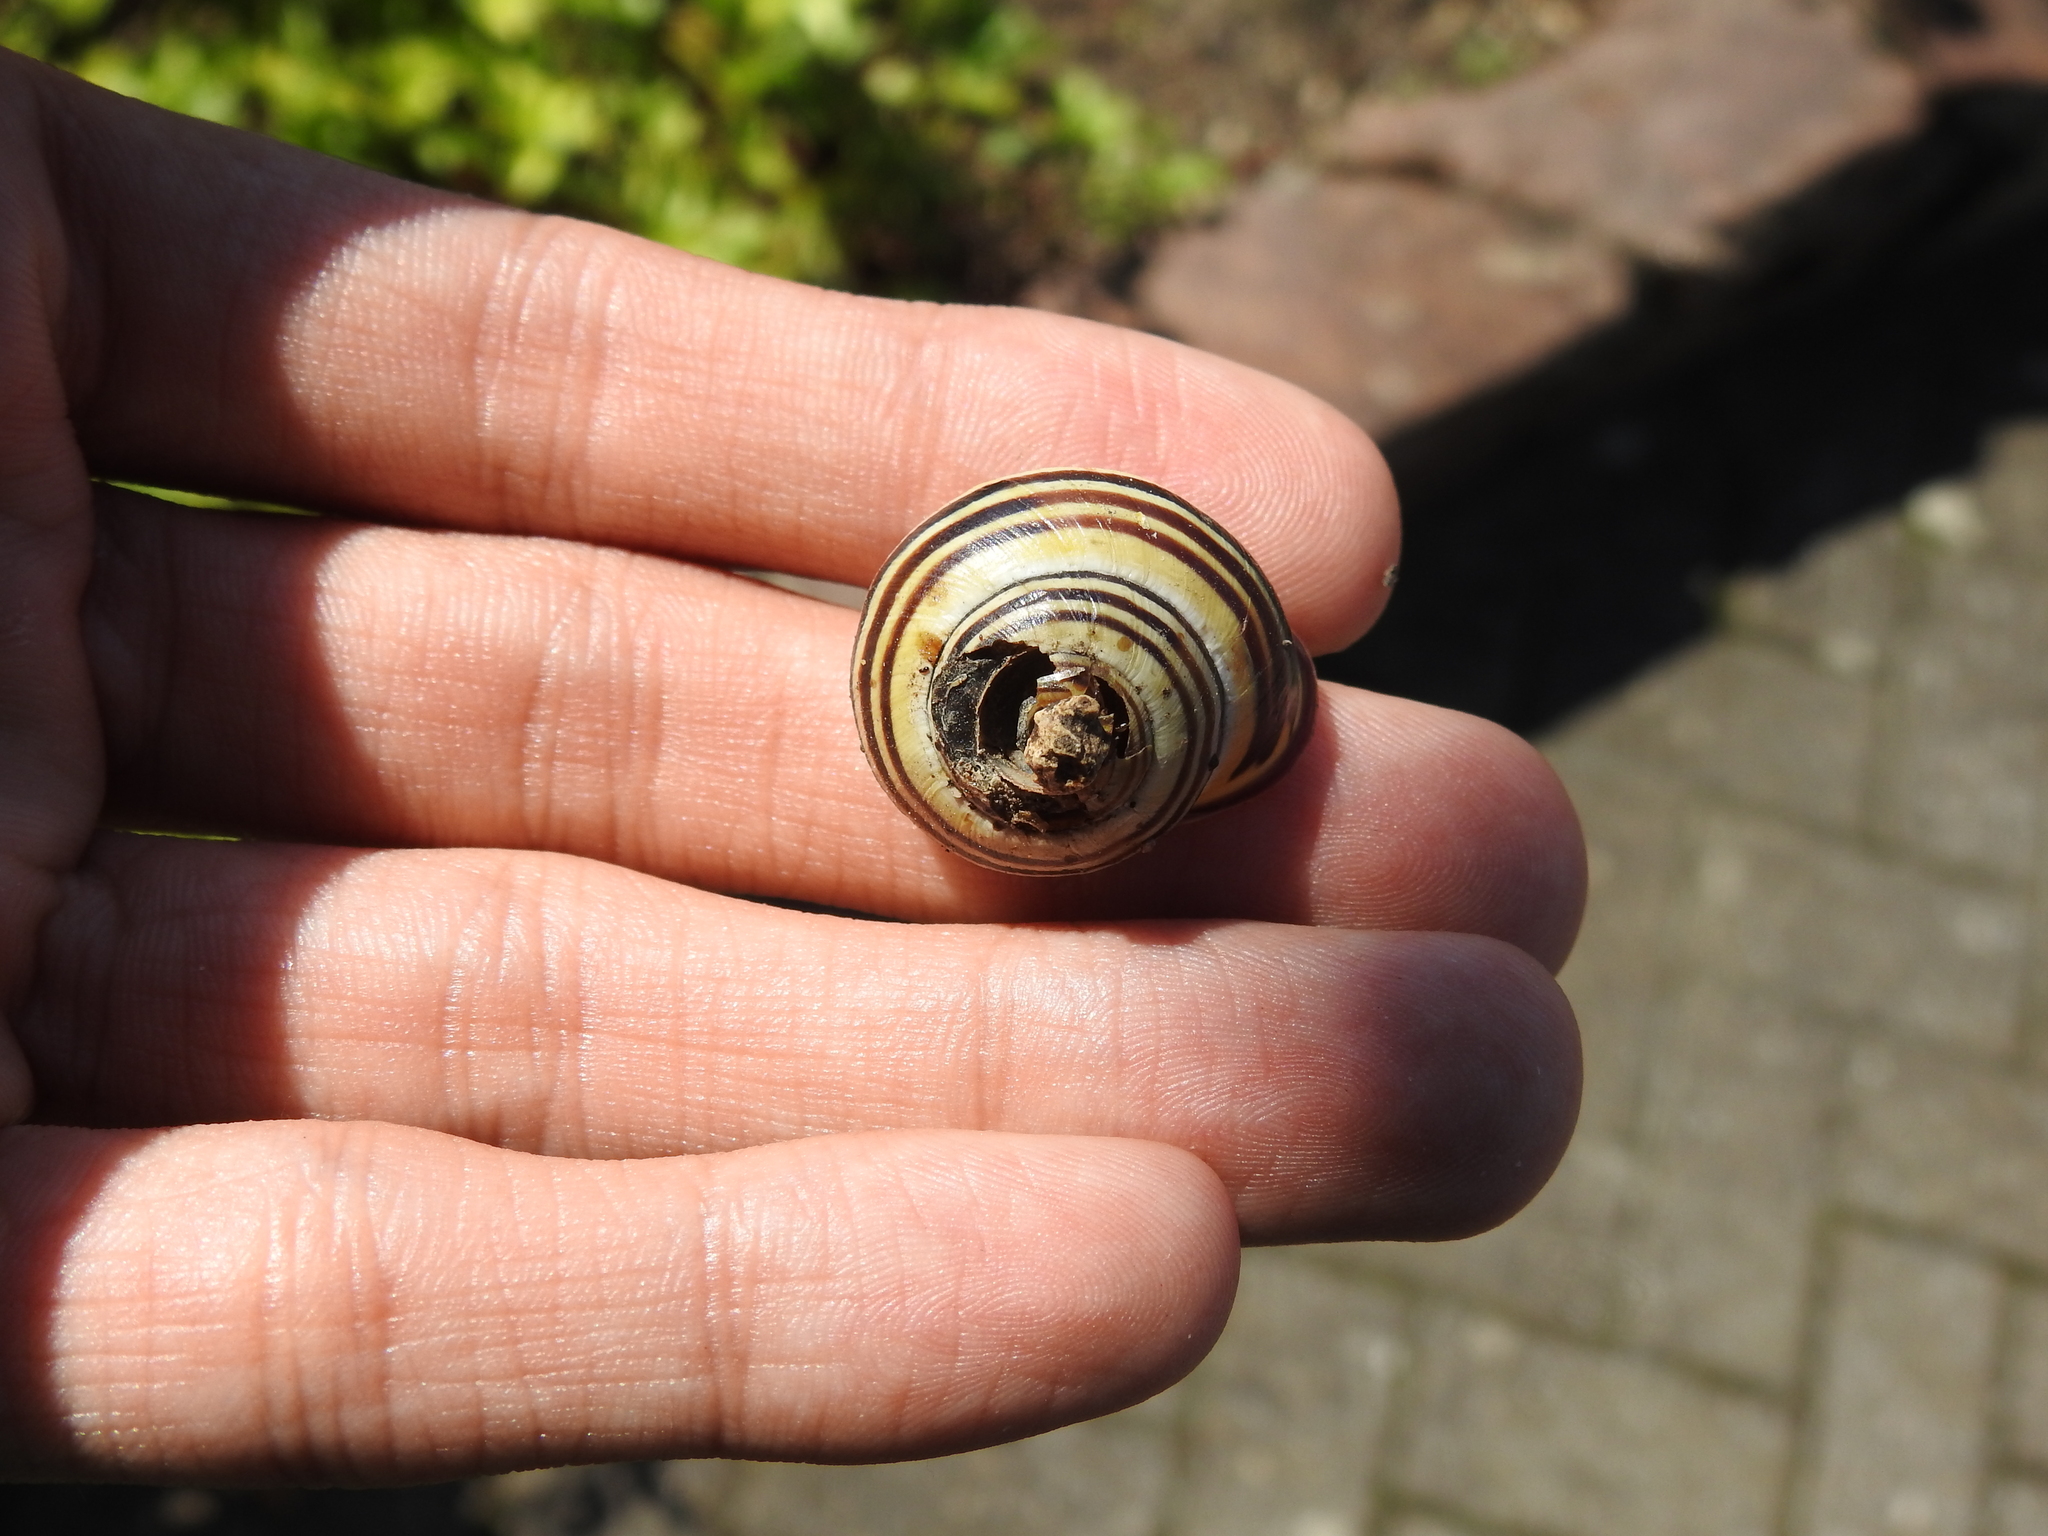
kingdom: Animalia
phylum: Mollusca
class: Gastropoda
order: Stylommatophora
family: Helicidae
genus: Cepaea
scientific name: Cepaea nemoralis
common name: Grovesnail
